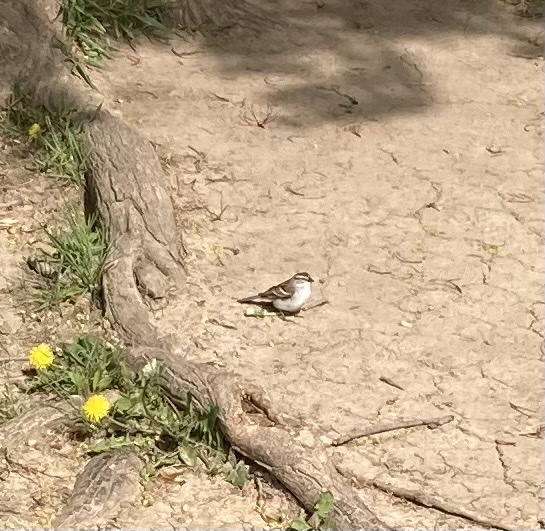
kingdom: Animalia
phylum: Chordata
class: Aves
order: Passeriformes
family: Passerellidae
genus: Spizella
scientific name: Spizella passerina
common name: Chipping sparrow
